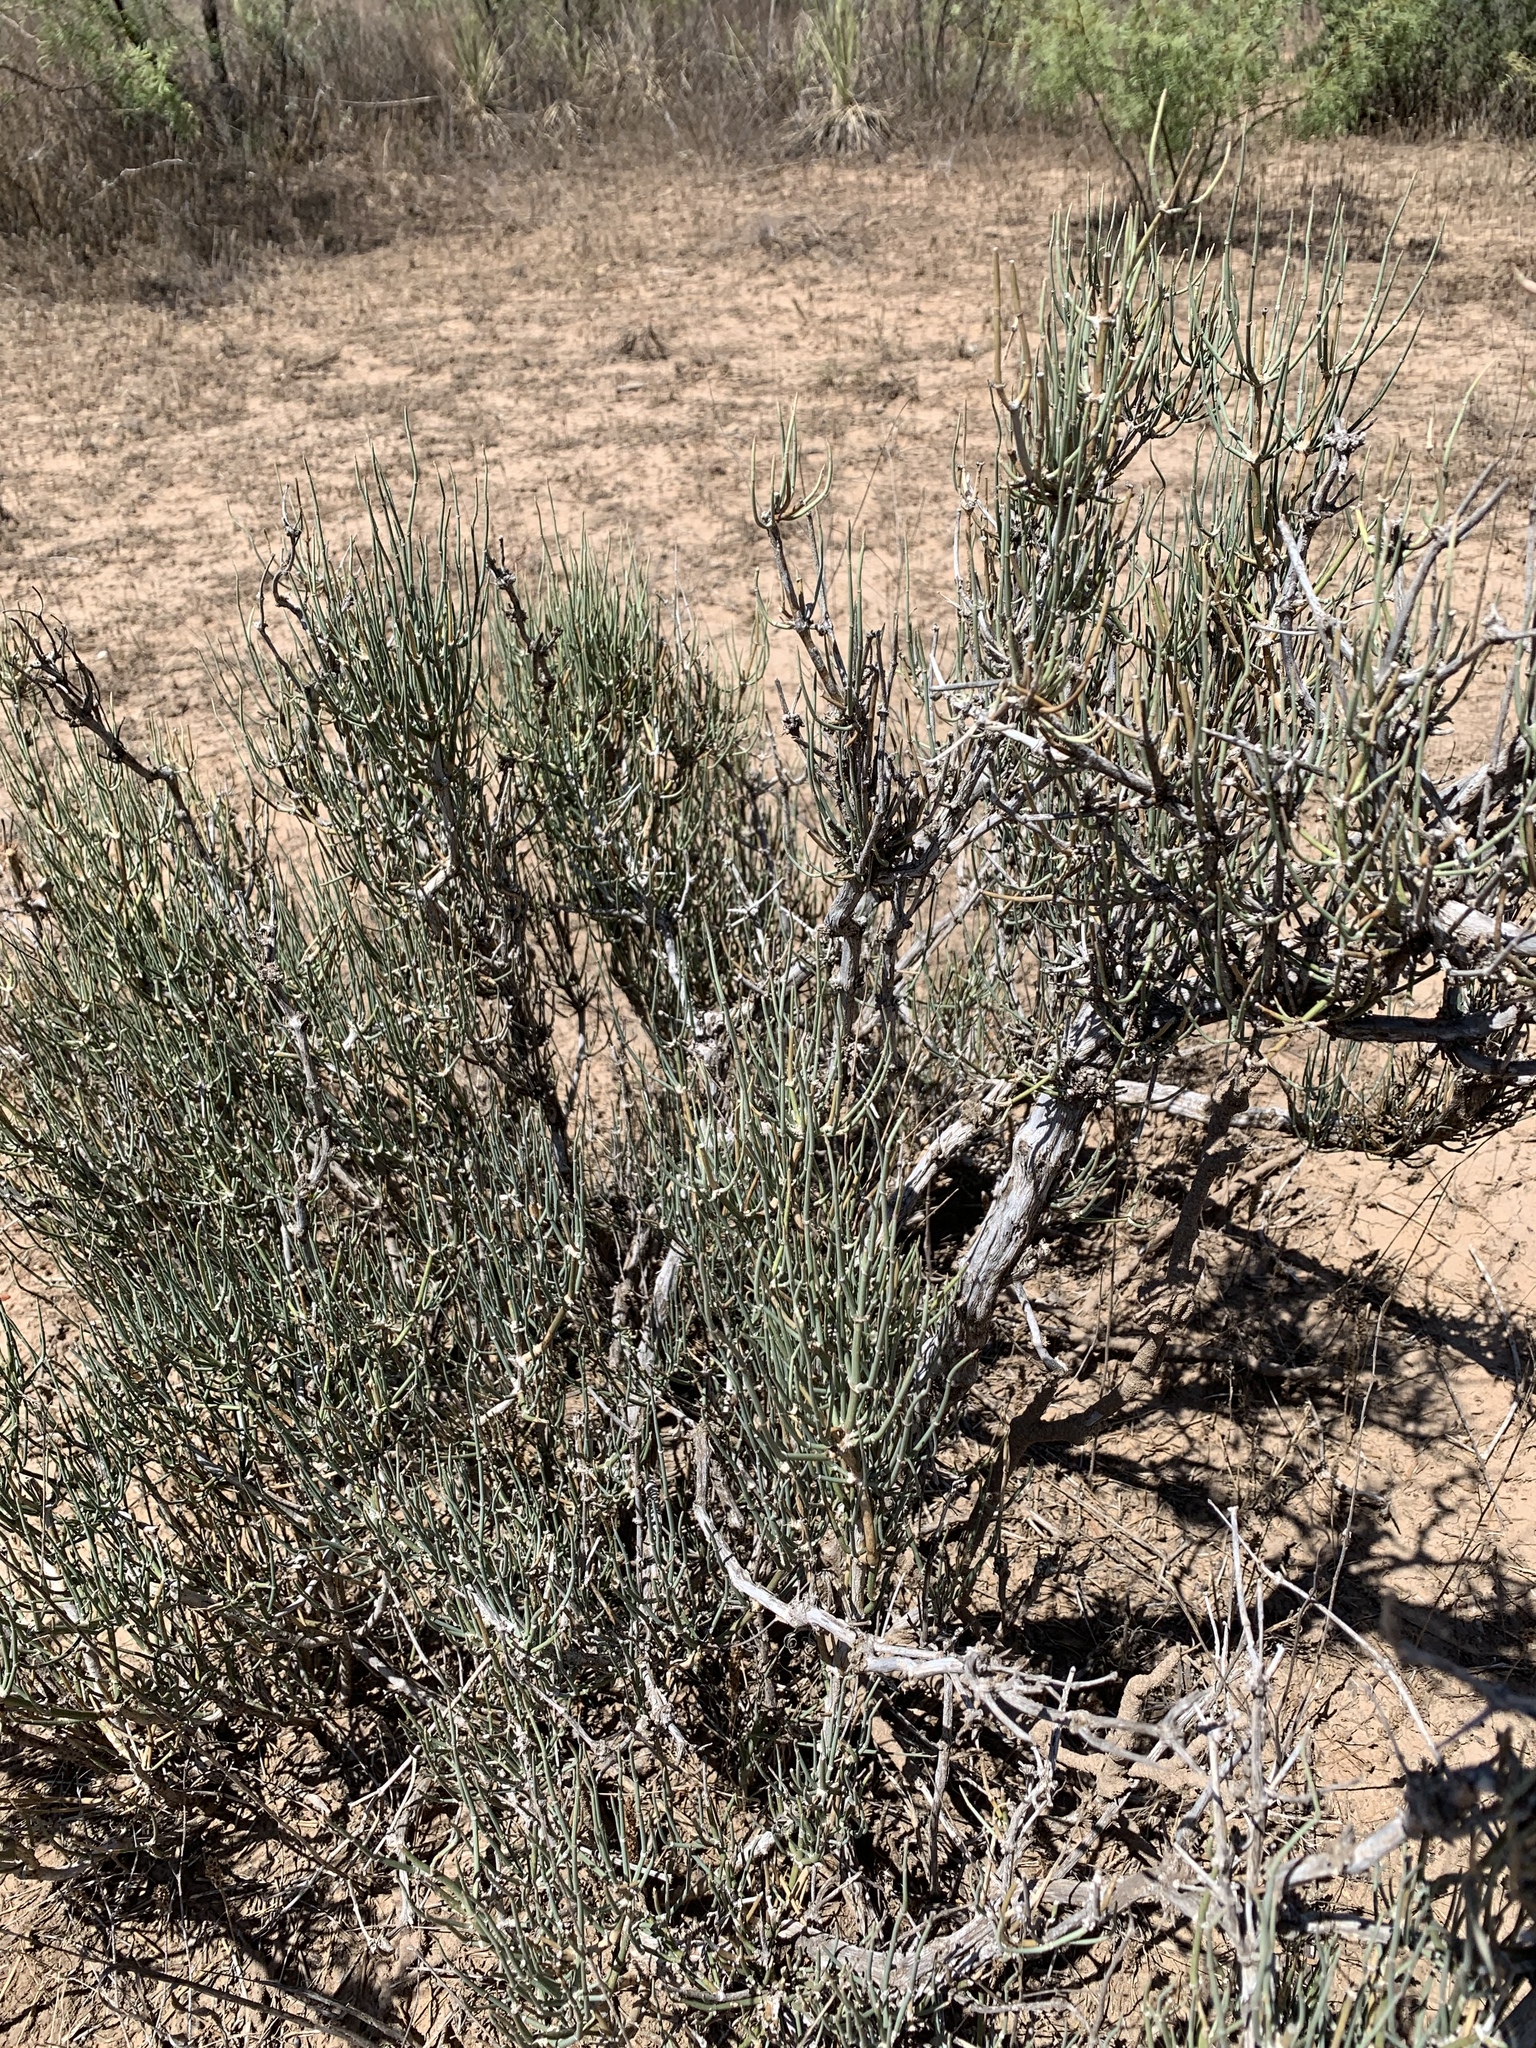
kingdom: Plantae
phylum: Tracheophyta
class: Gnetopsida
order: Ephedrales
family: Ephedraceae
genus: Ephedra
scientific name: Ephedra antisyphilitica
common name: Clipweed
